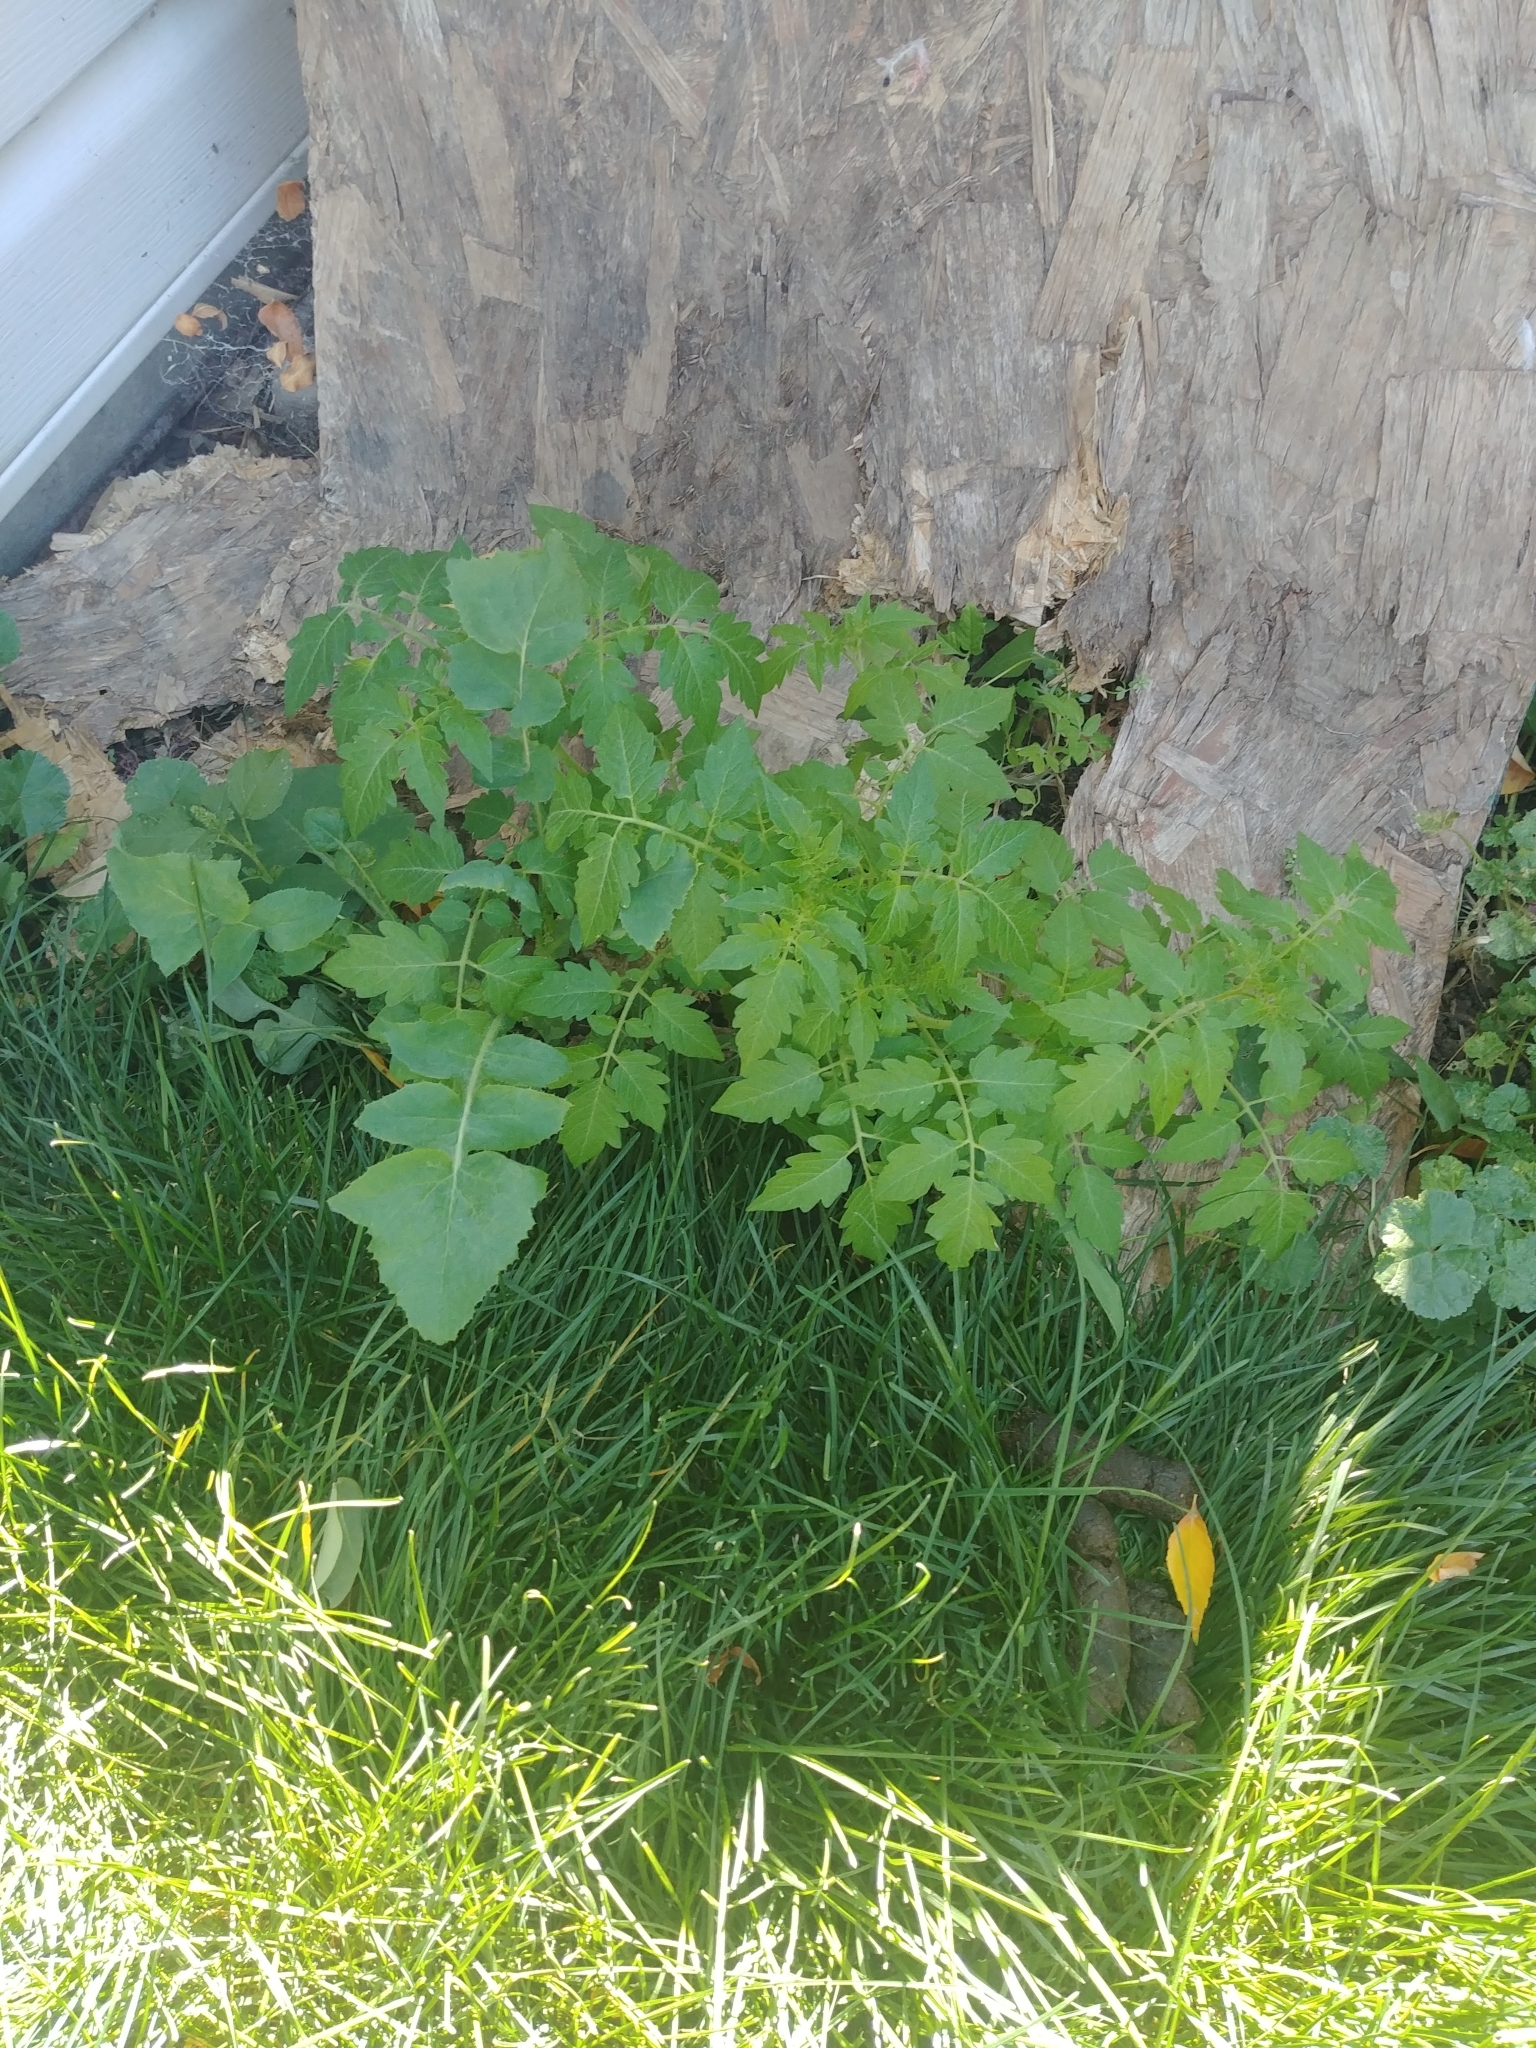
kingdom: Plantae
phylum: Tracheophyta
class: Magnoliopsida
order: Solanales
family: Solanaceae
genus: Solanum
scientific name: Solanum lycopersicum
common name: Garden tomato
